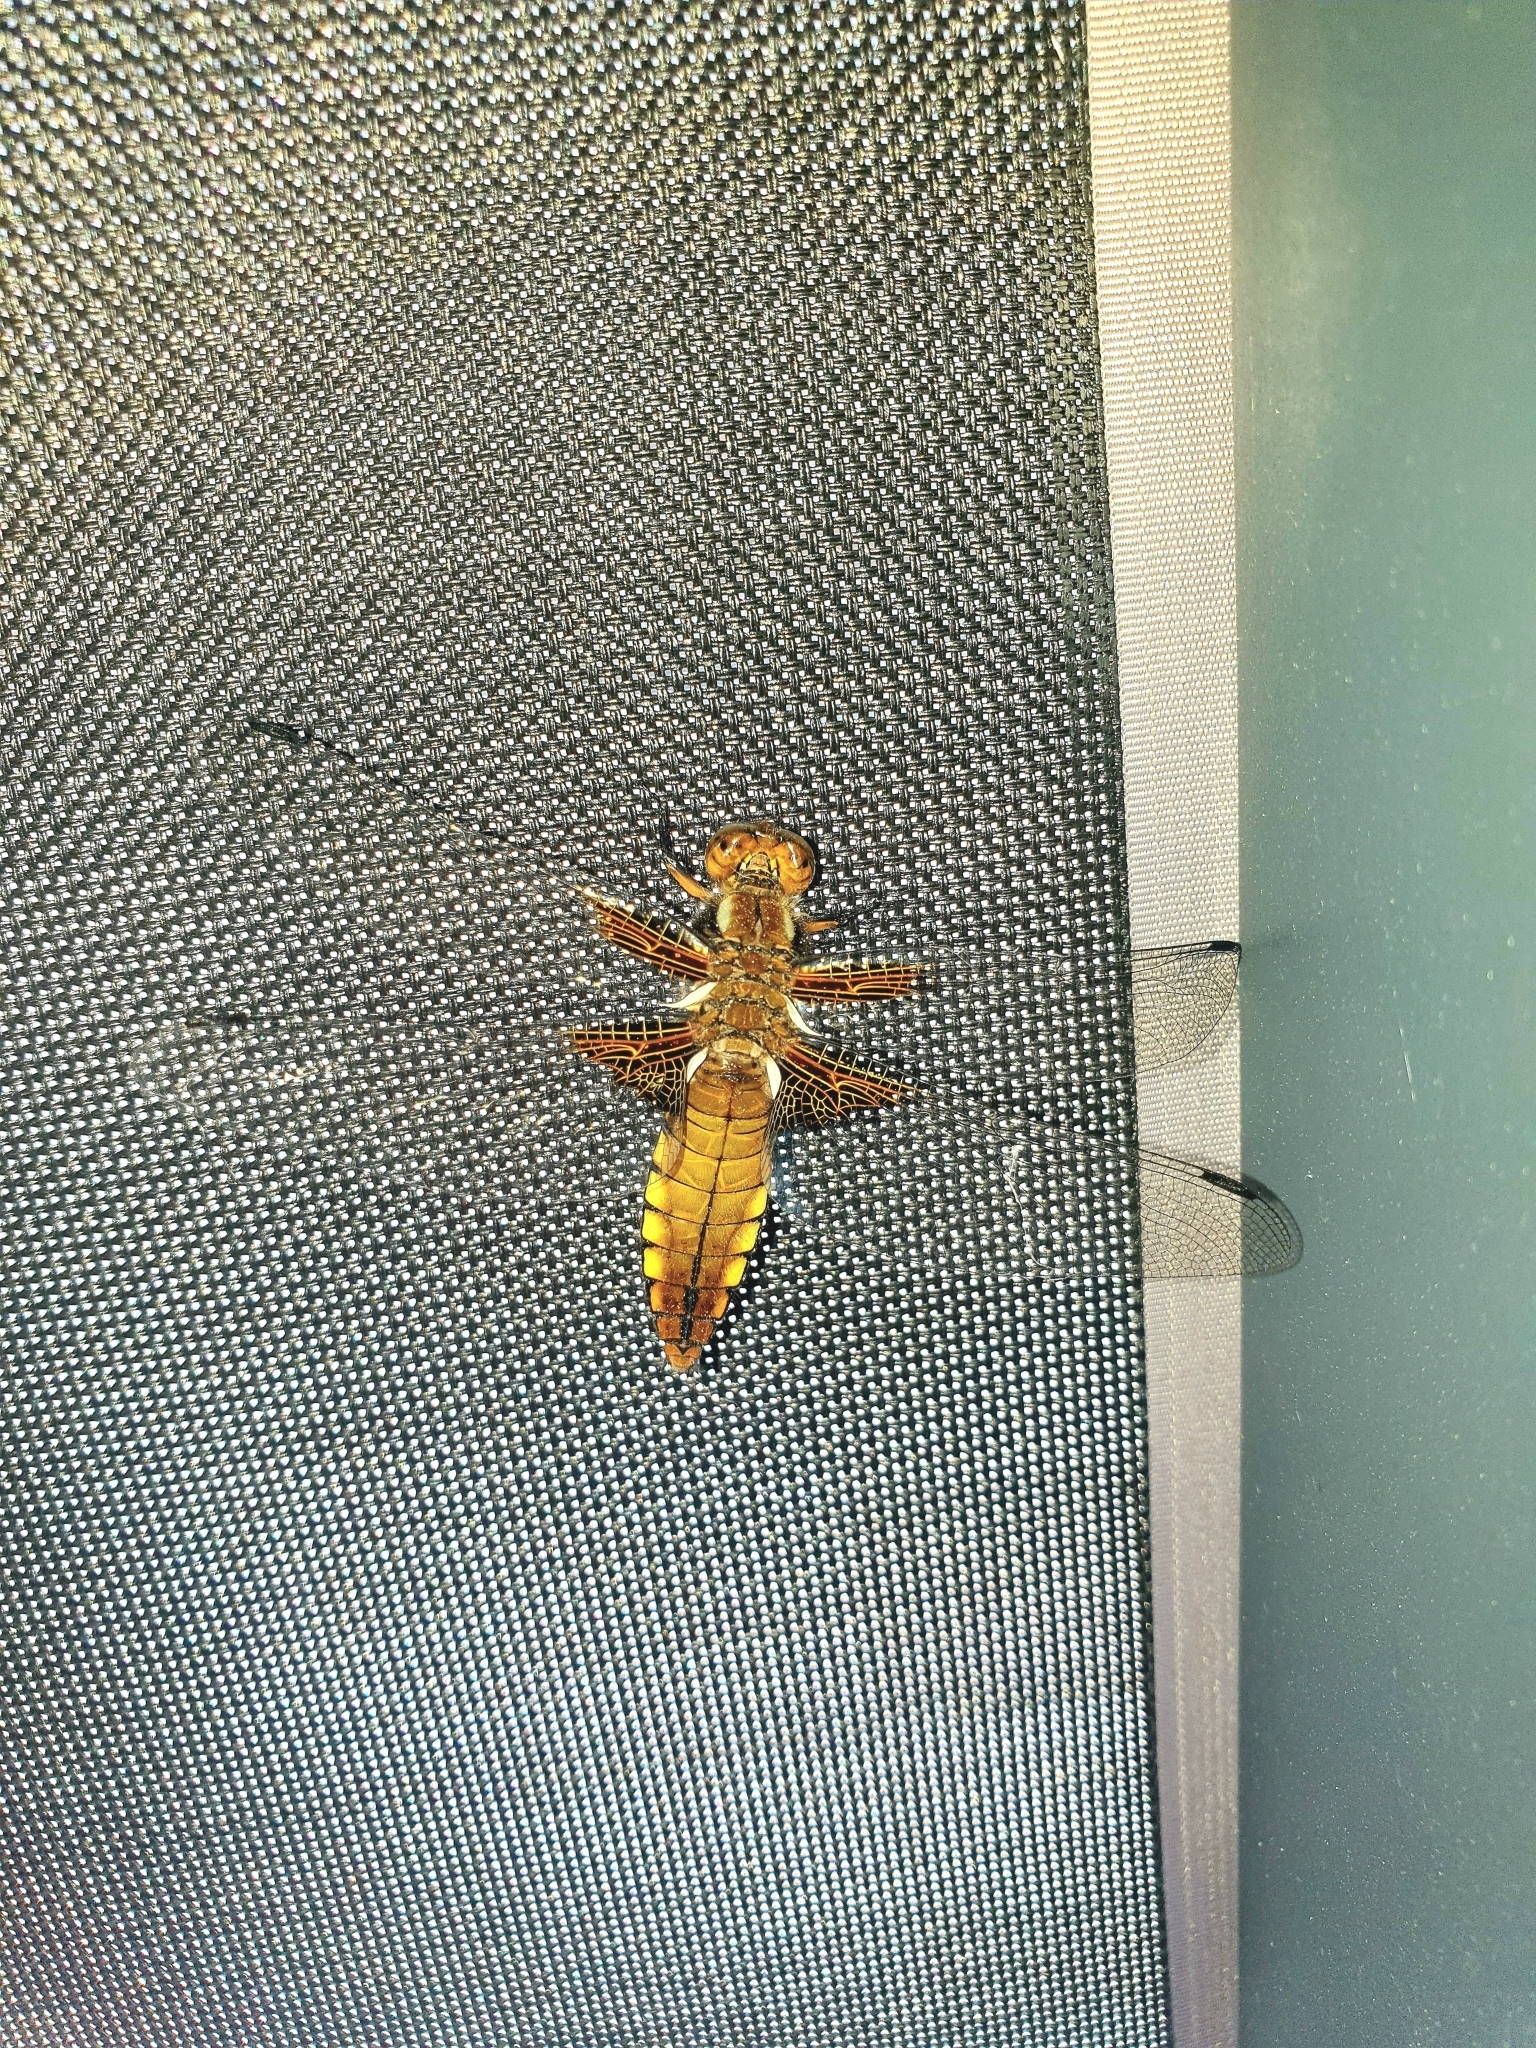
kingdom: Animalia
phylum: Arthropoda
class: Insecta
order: Odonata
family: Libellulidae
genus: Libellula
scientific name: Libellula depressa
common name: Broad-bodied chaser
